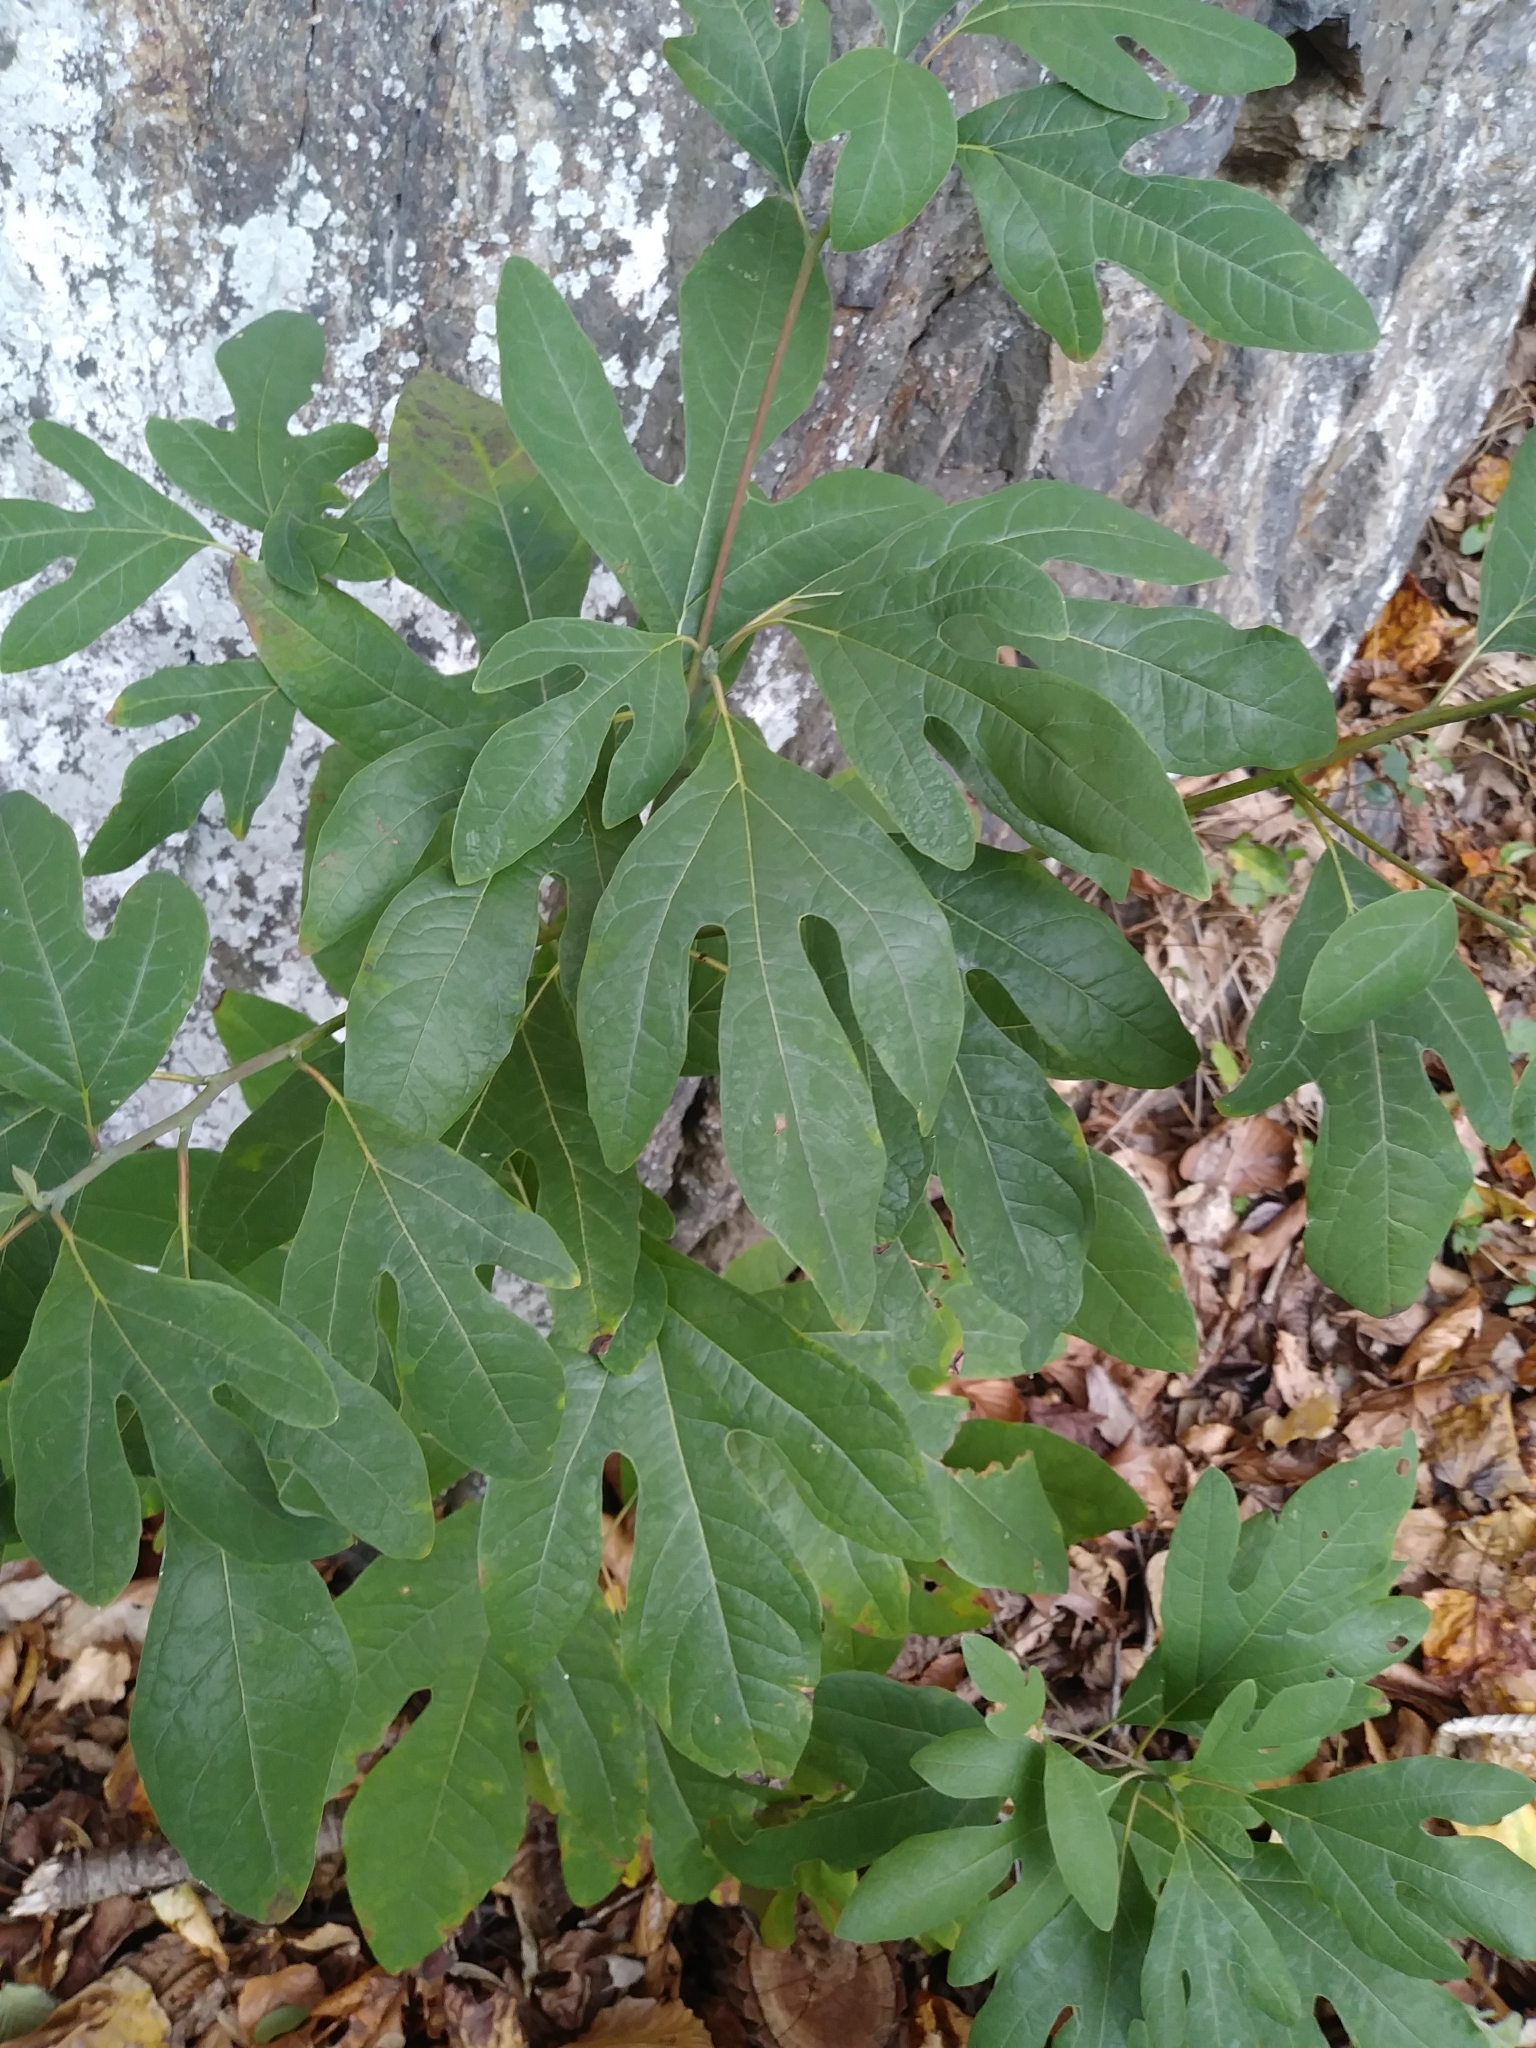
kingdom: Plantae
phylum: Tracheophyta
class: Magnoliopsida
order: Laurales
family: Lauraceae
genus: Sassafras
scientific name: Sassafras albidum
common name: Sassafras
